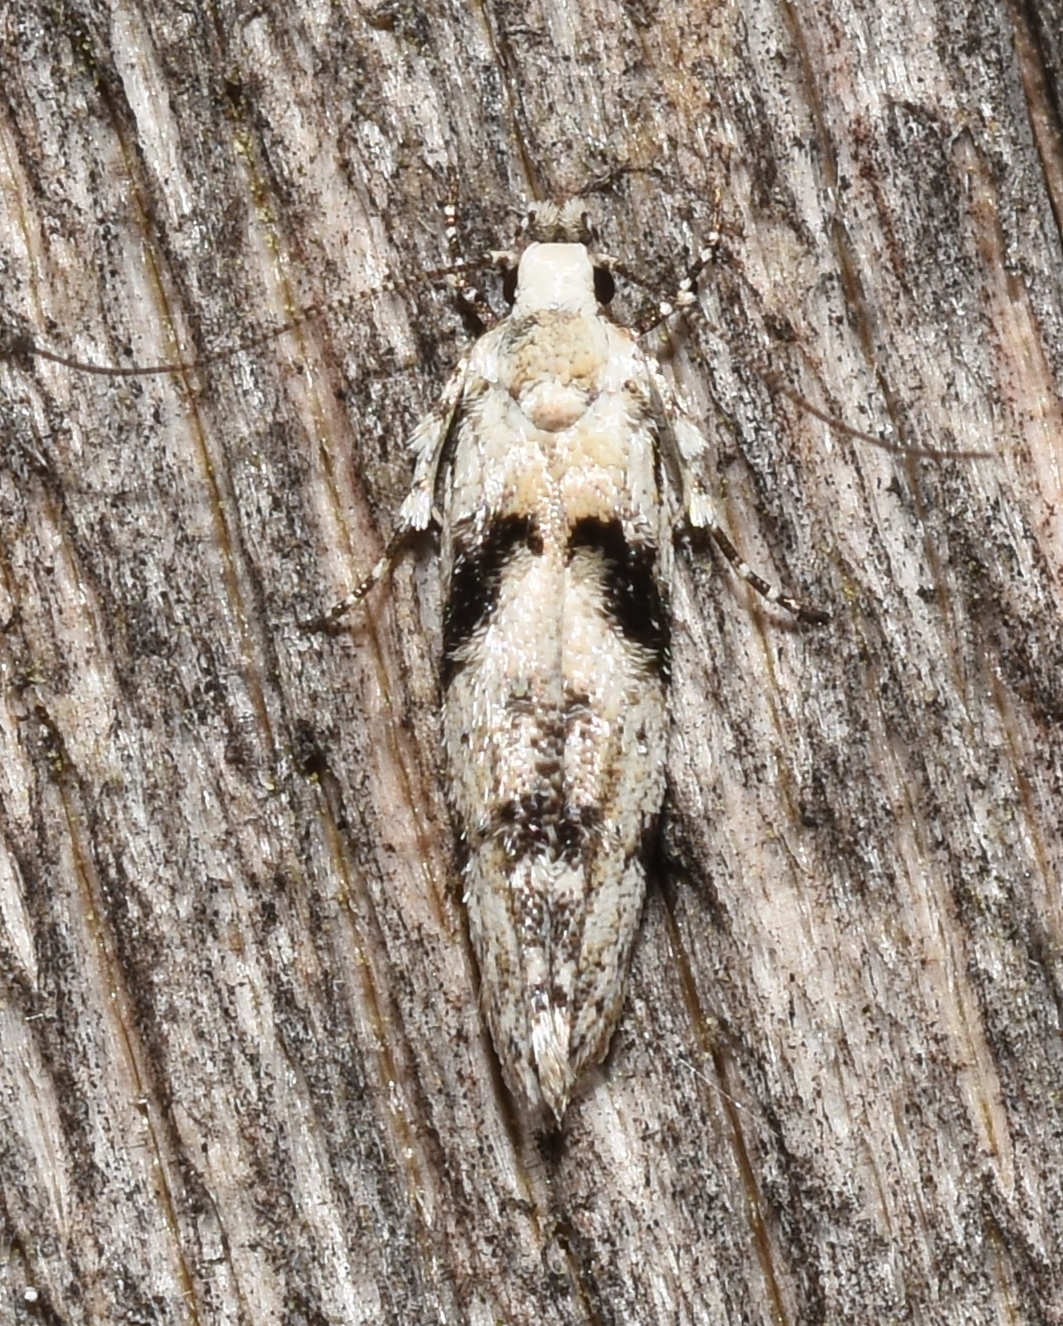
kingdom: Animalia
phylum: Arthropoda
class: Insecta
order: Lepidoptera
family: Gelechiidae
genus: Arogalea
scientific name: Arogalea cristifasciella
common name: White stripe-backed moth
